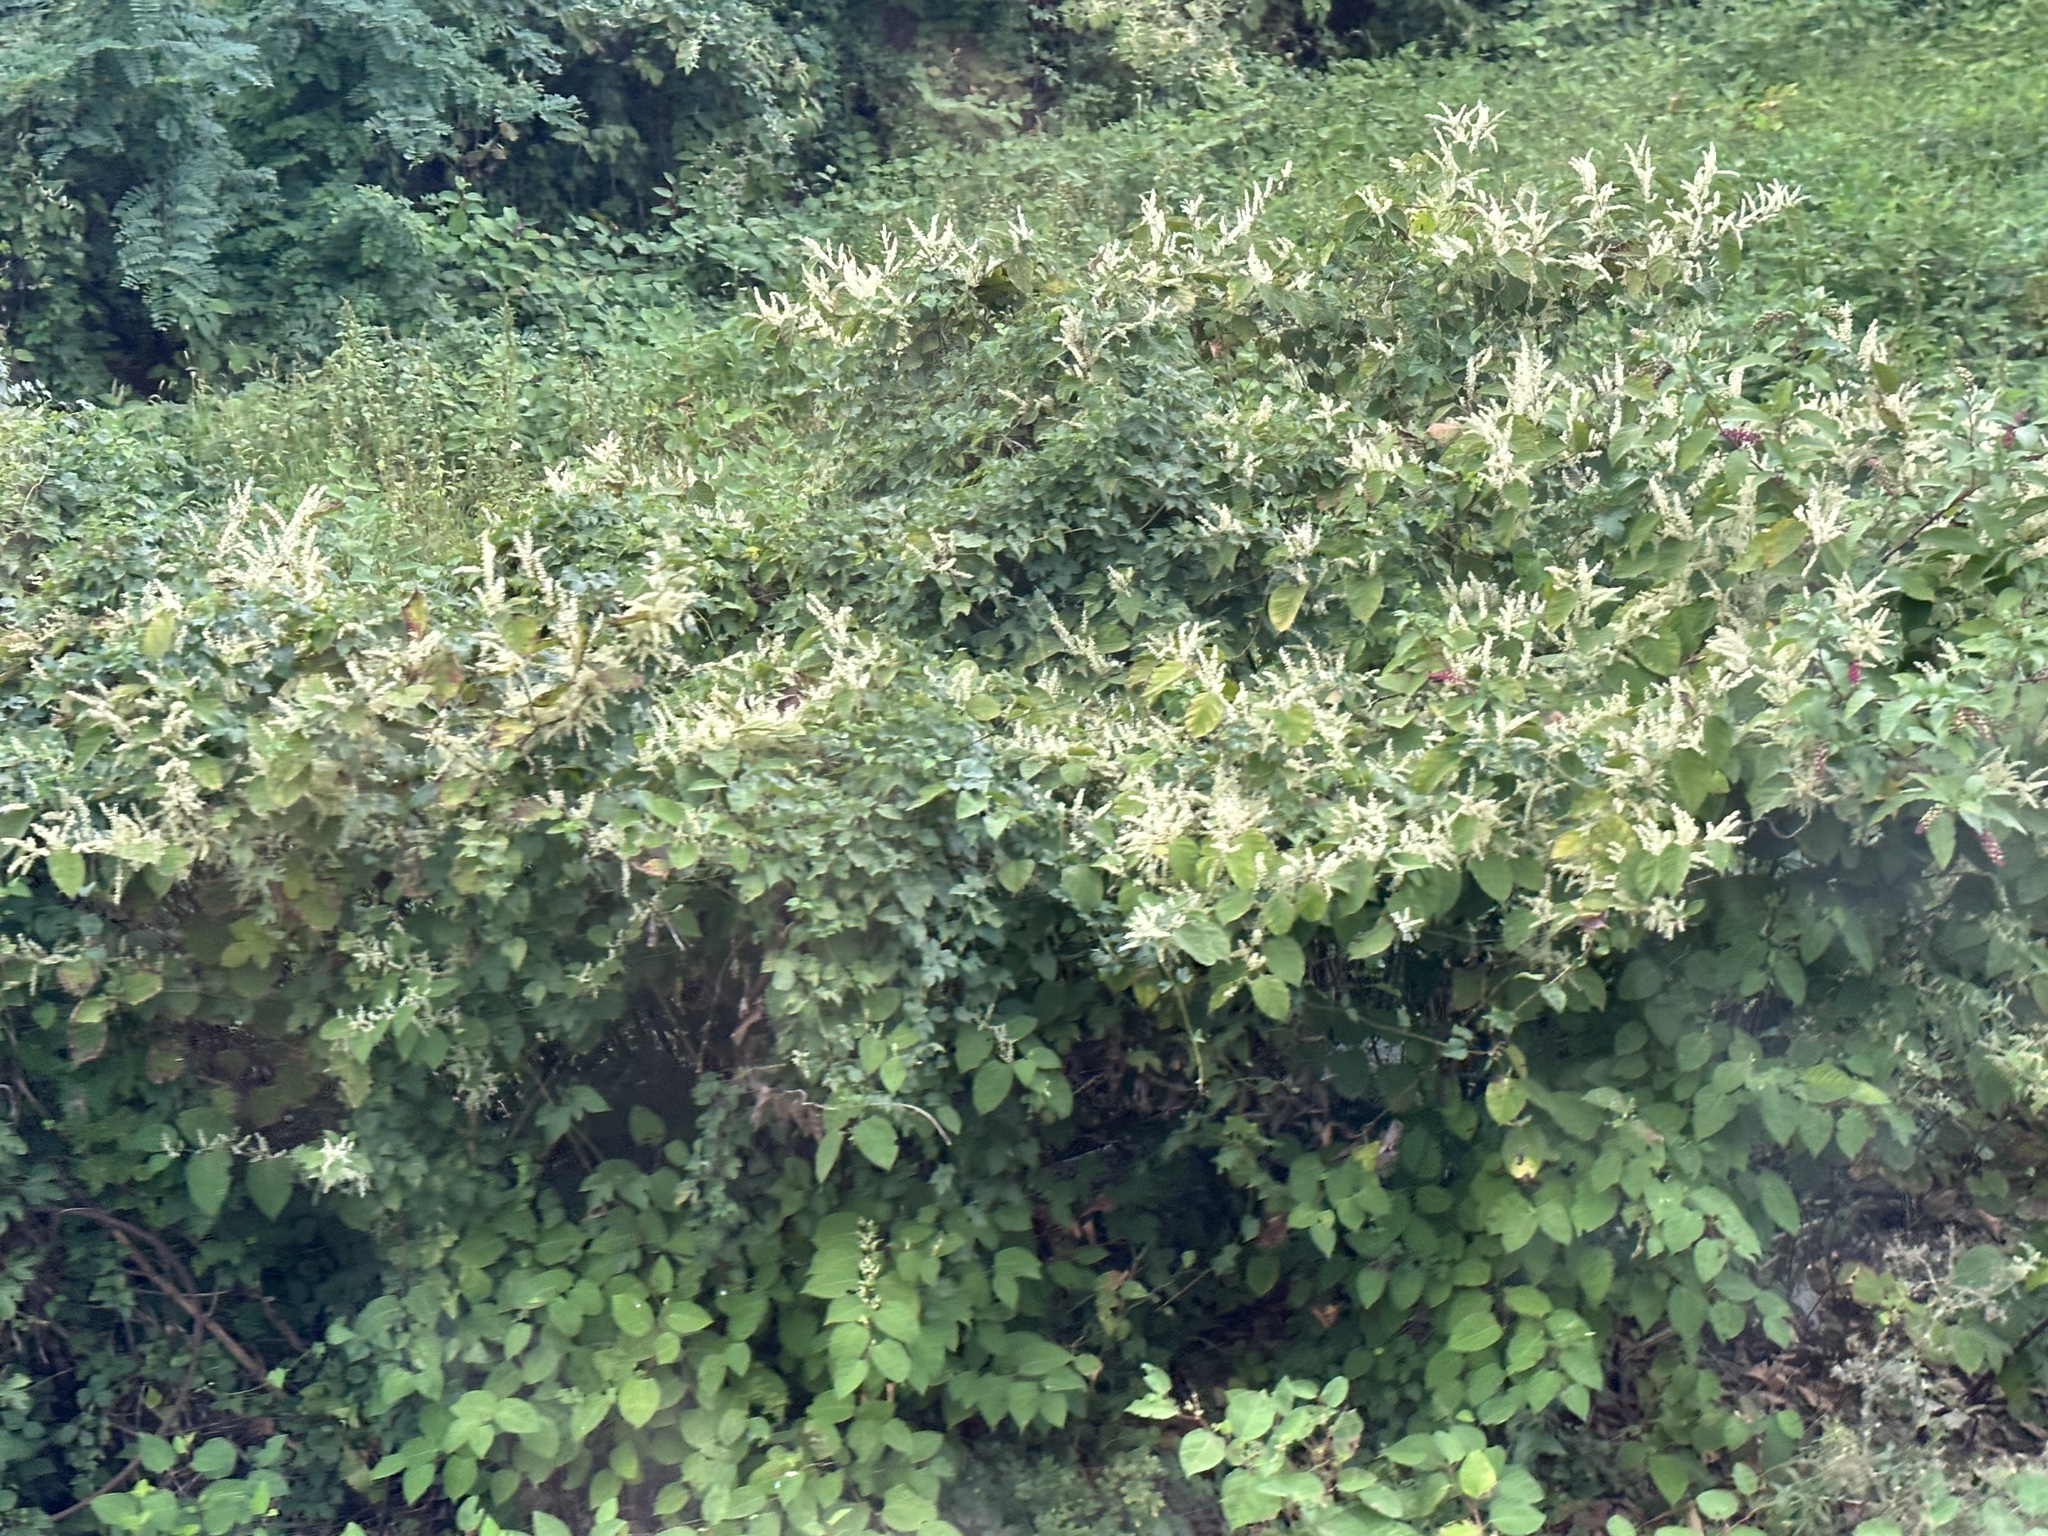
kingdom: Plantae
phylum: Tracheophyta
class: Magnoliopsida
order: Caryophyllales
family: Polygonaceae
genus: Reynoutria
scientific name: Reynoutria japonica
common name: Japanese knotweed
